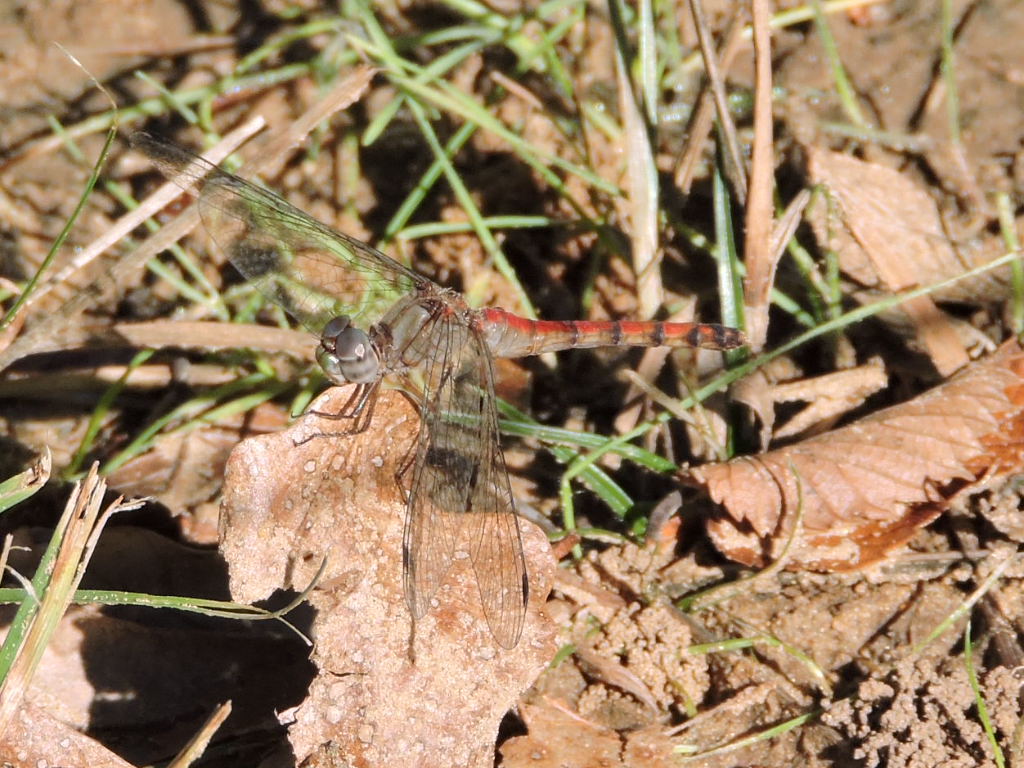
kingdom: Animalia
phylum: Arthropoda
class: Insecta
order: Odonata
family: Libellulidae
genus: Sympetrum
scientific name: Sympetrum ambiguum
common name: Blue-faced meadowhawk
